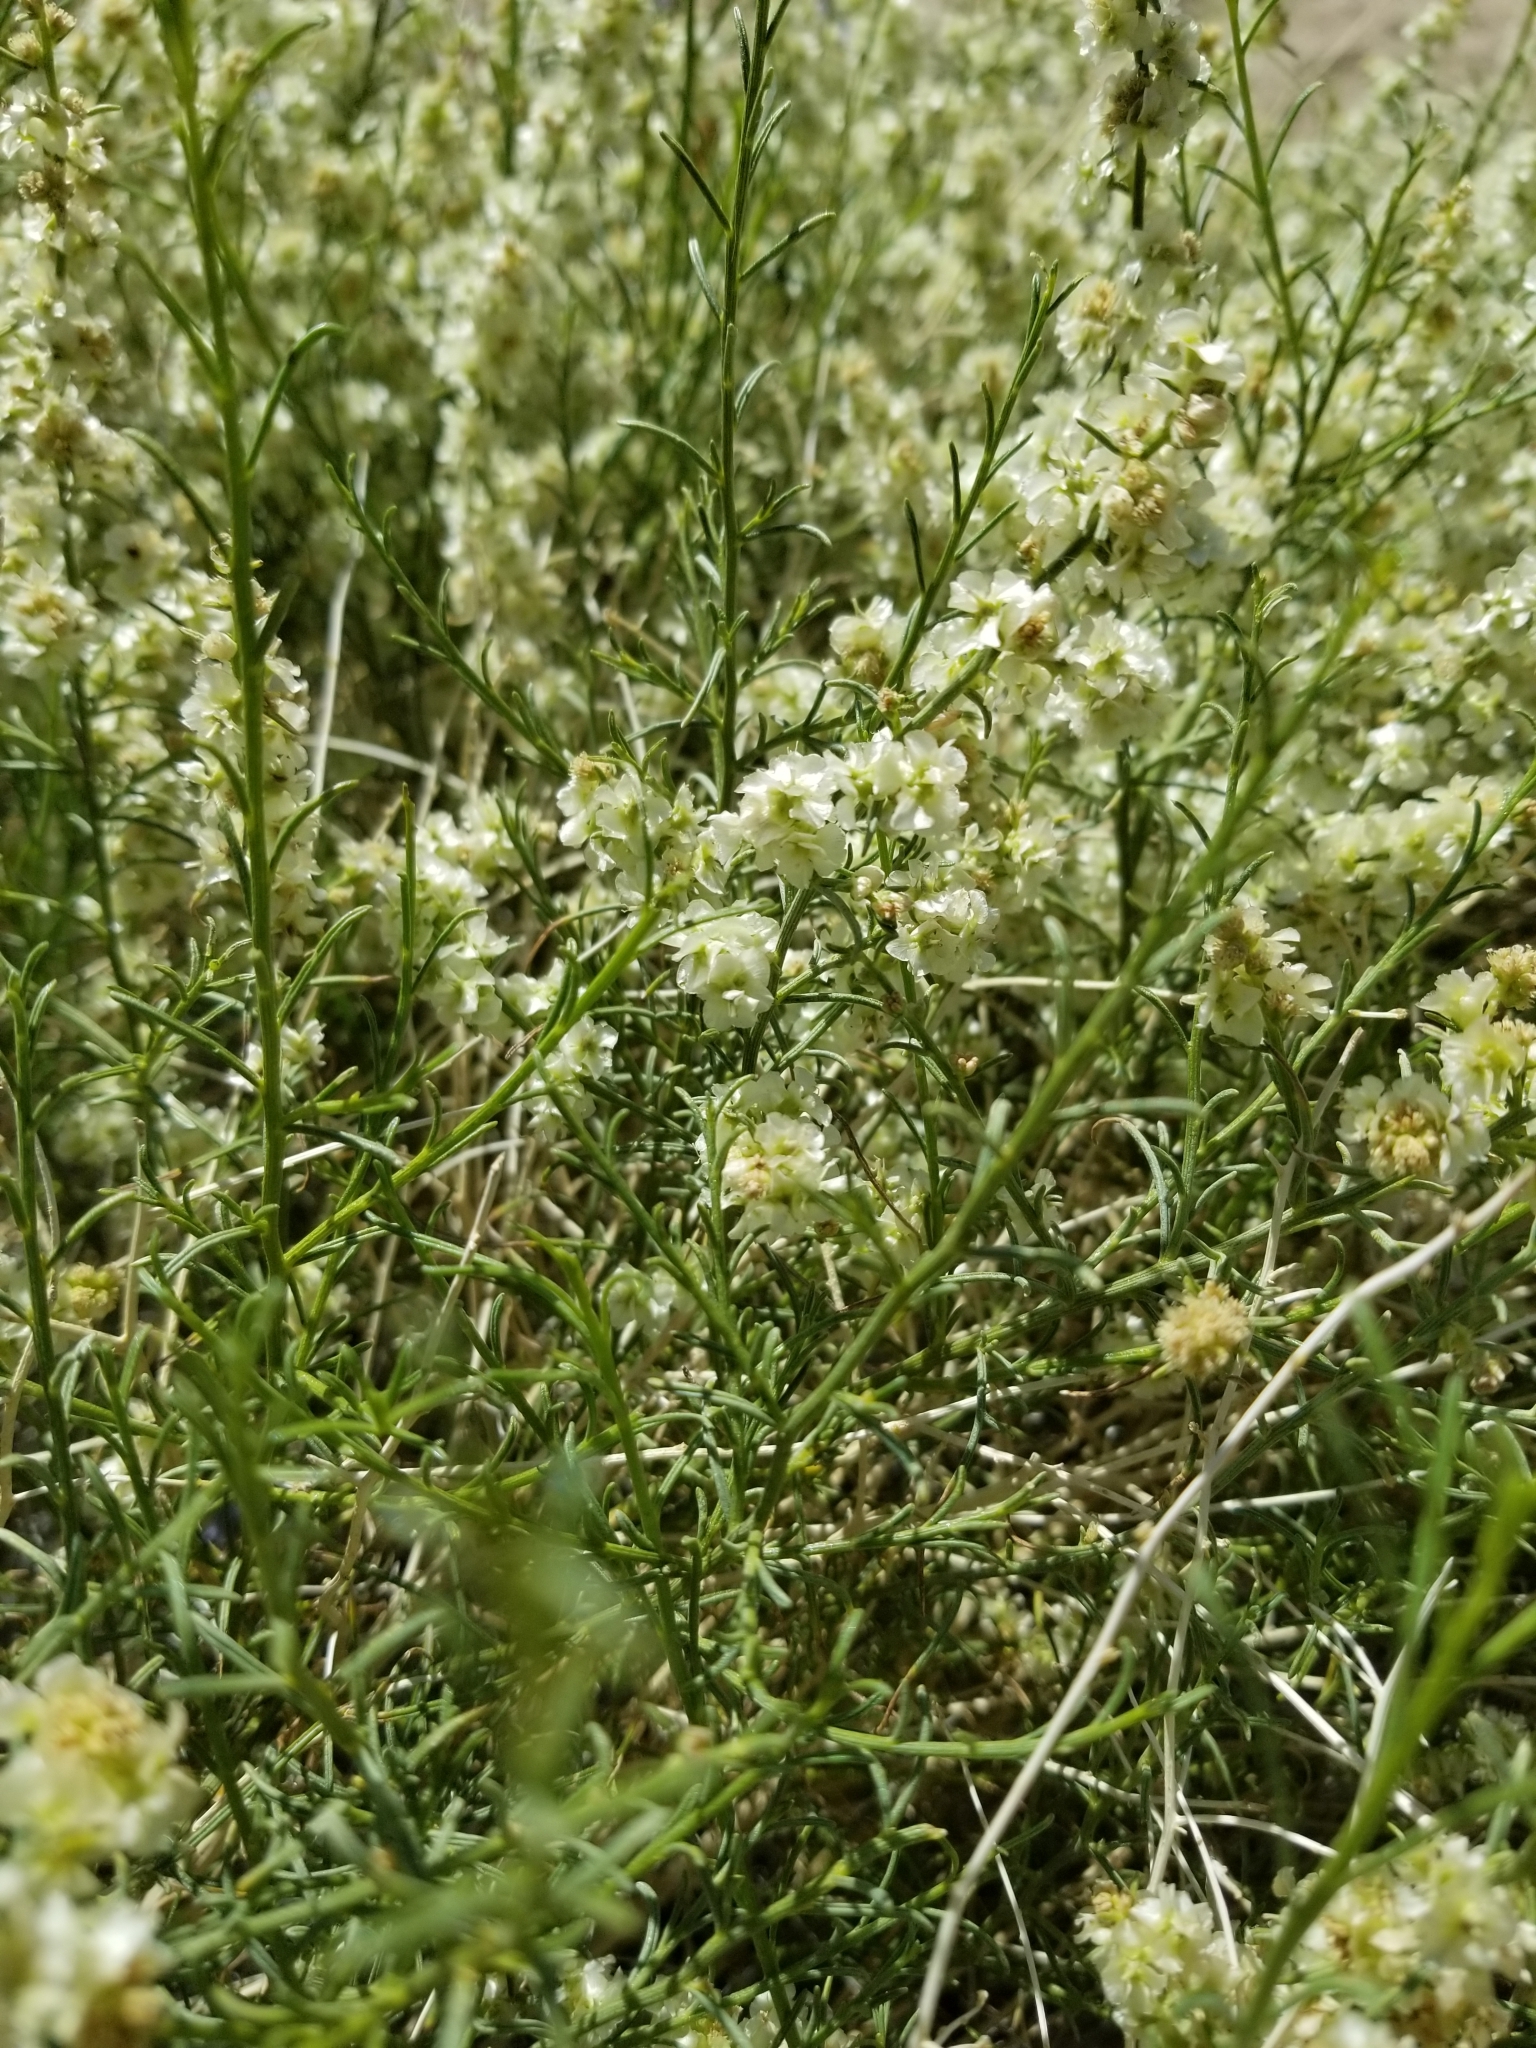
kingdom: Plantae
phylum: Tracheophyta
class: Magnoliopsida
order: Asterales
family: Asteraceae
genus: Ambrosia
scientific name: Ambrosia salsola
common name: Burrobrush
